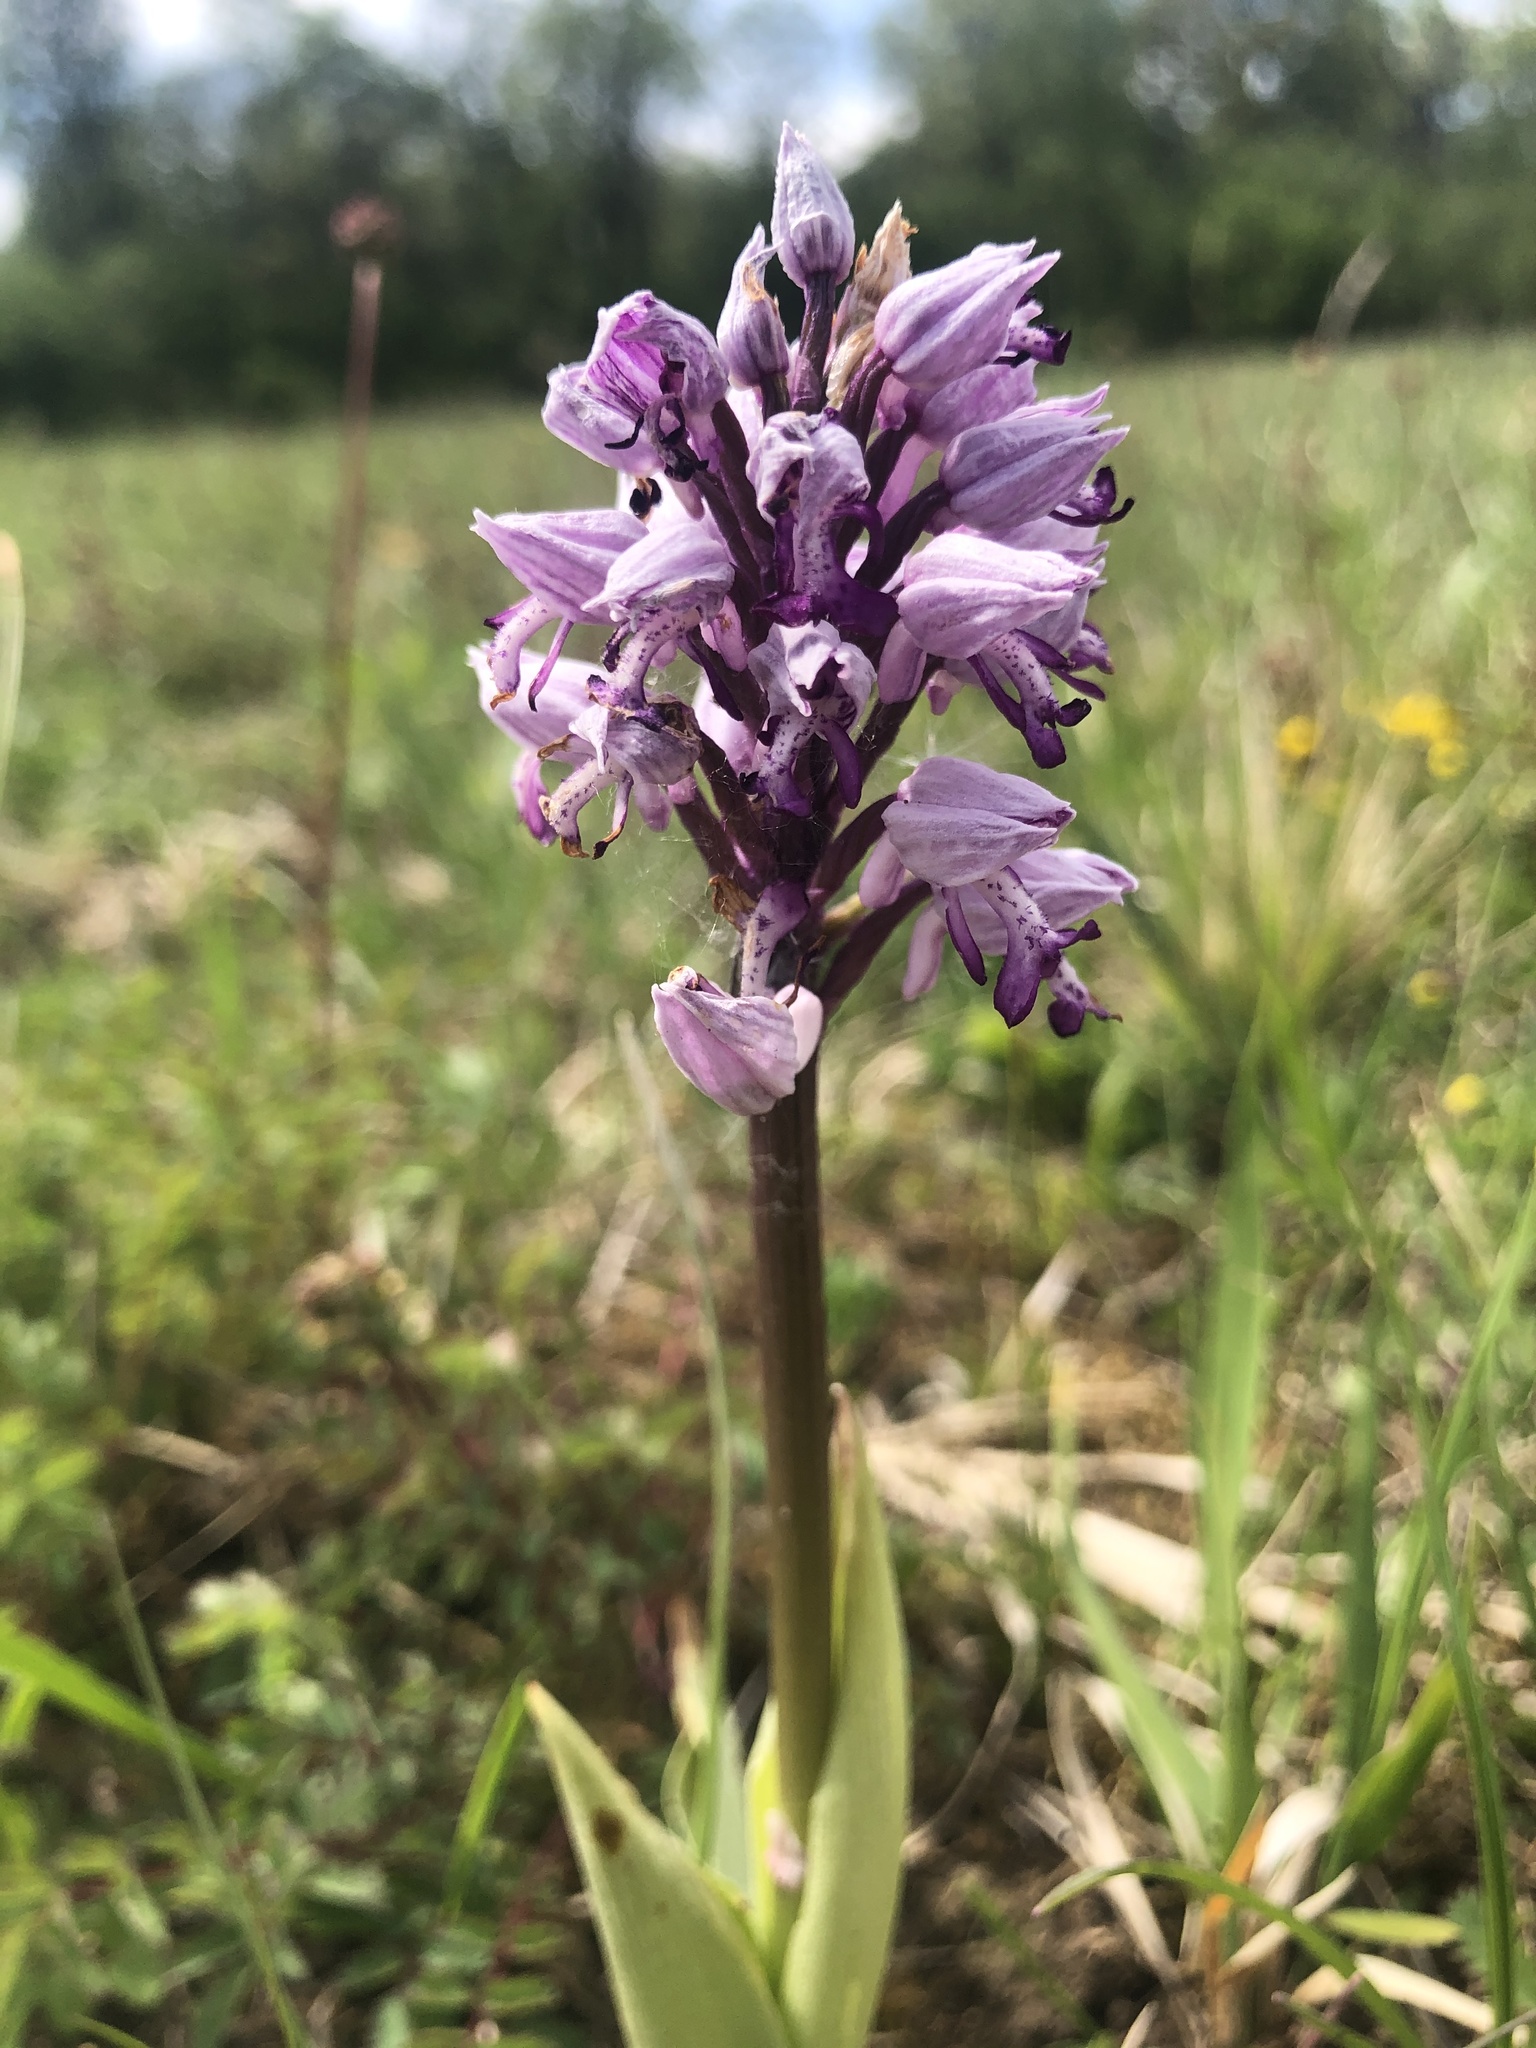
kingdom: Plantae
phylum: Tracheophyta
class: Liliopsida
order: Asparagales
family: Orchidaceae
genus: Orchis
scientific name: Orchis militaris
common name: Military orchid
